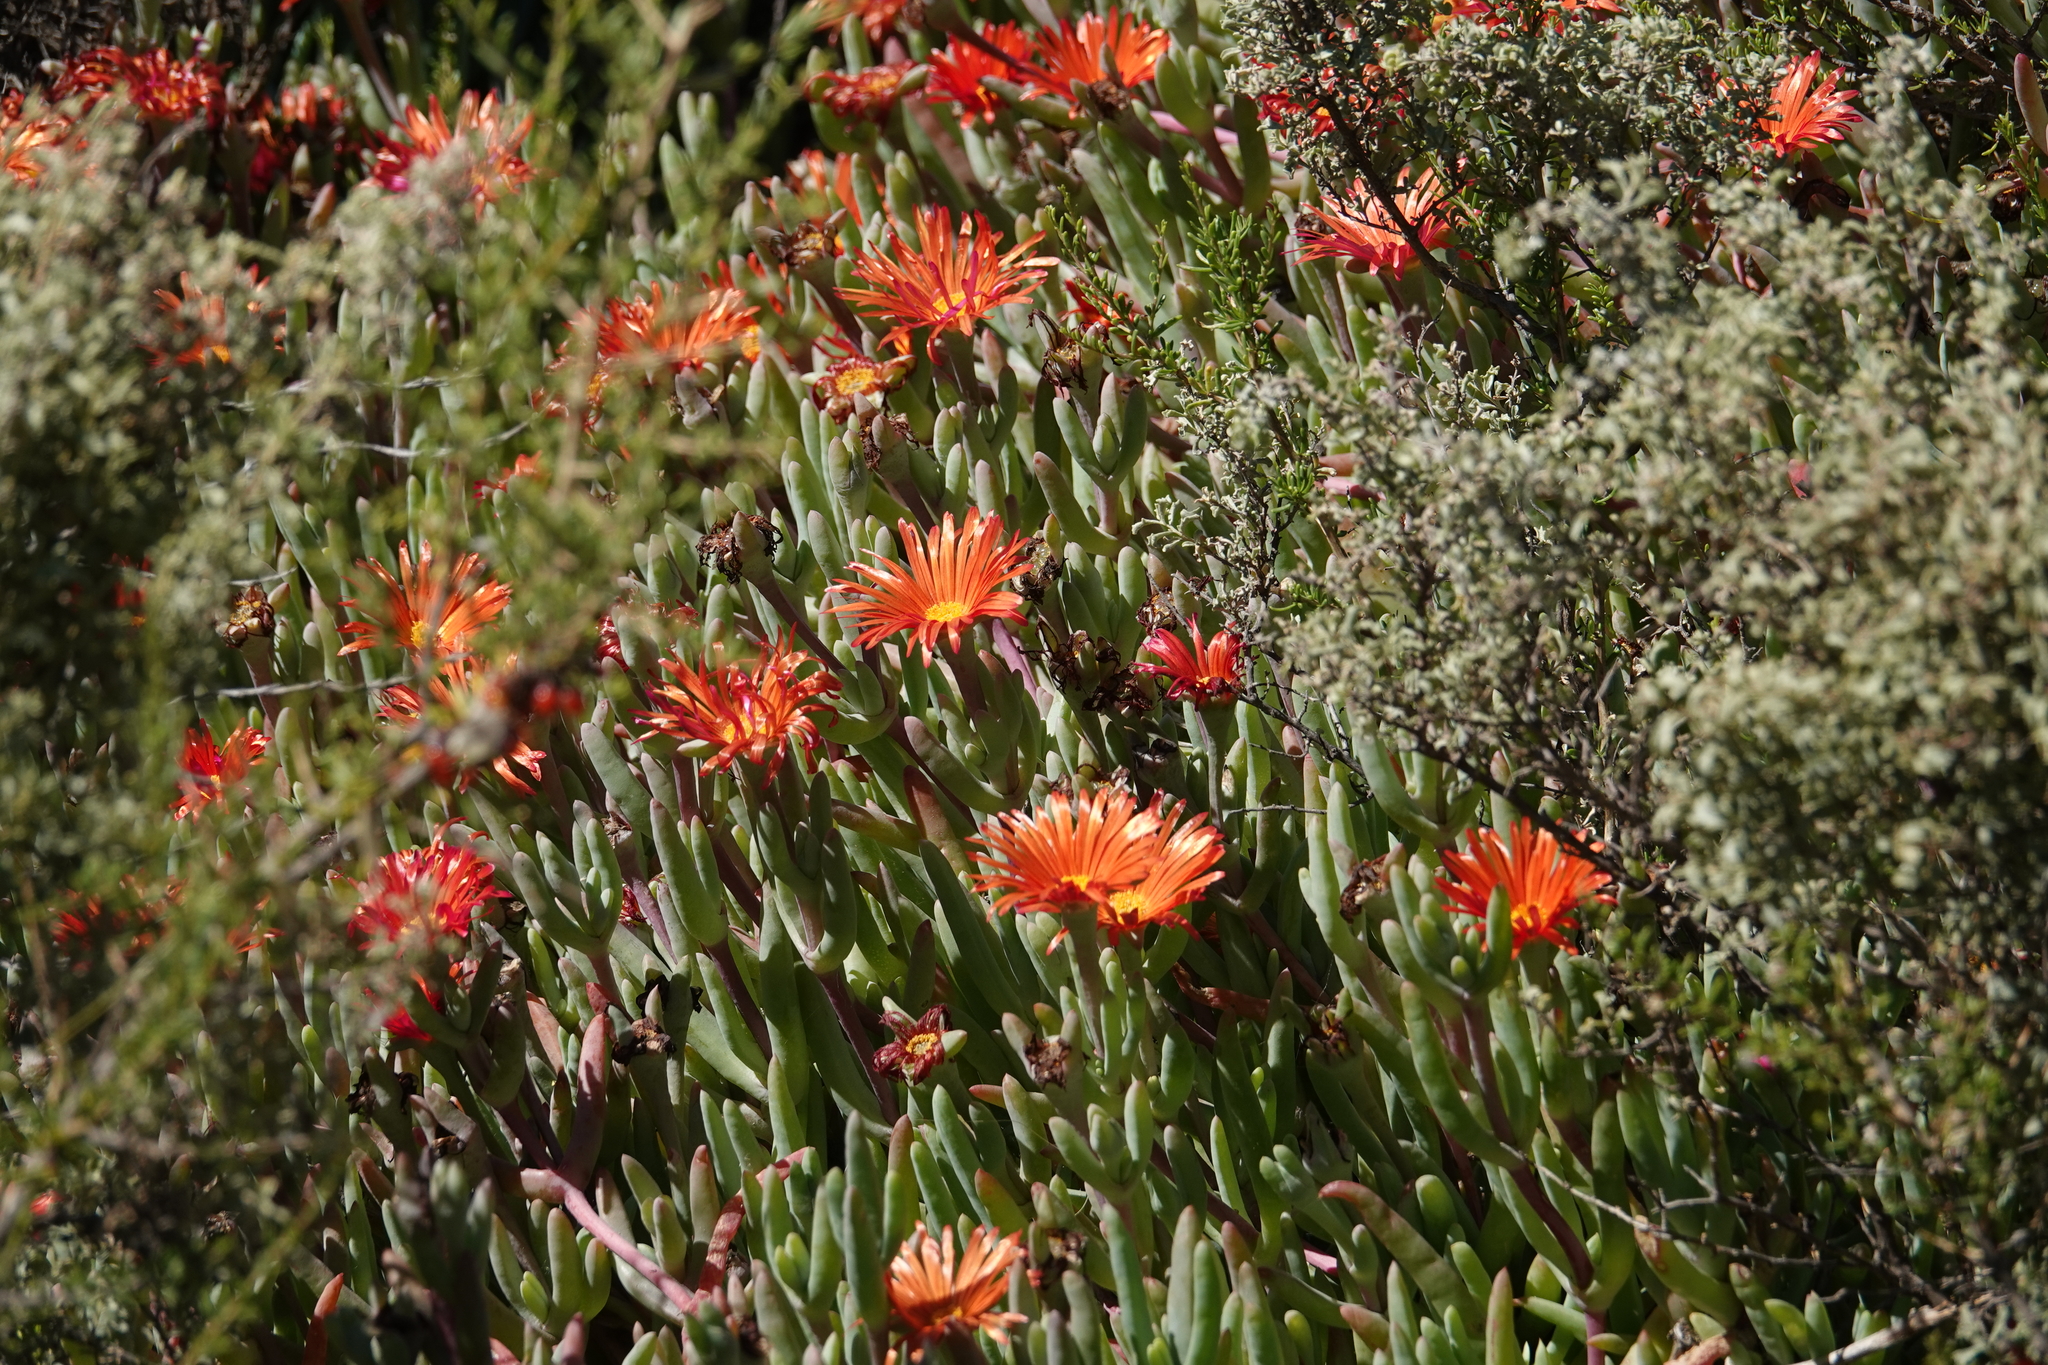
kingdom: Plantae
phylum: Tracheophyta
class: Magnoliopsida
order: Caryophyllales
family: Aizoaceae
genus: Malephora
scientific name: Malephora purpureocrocea
